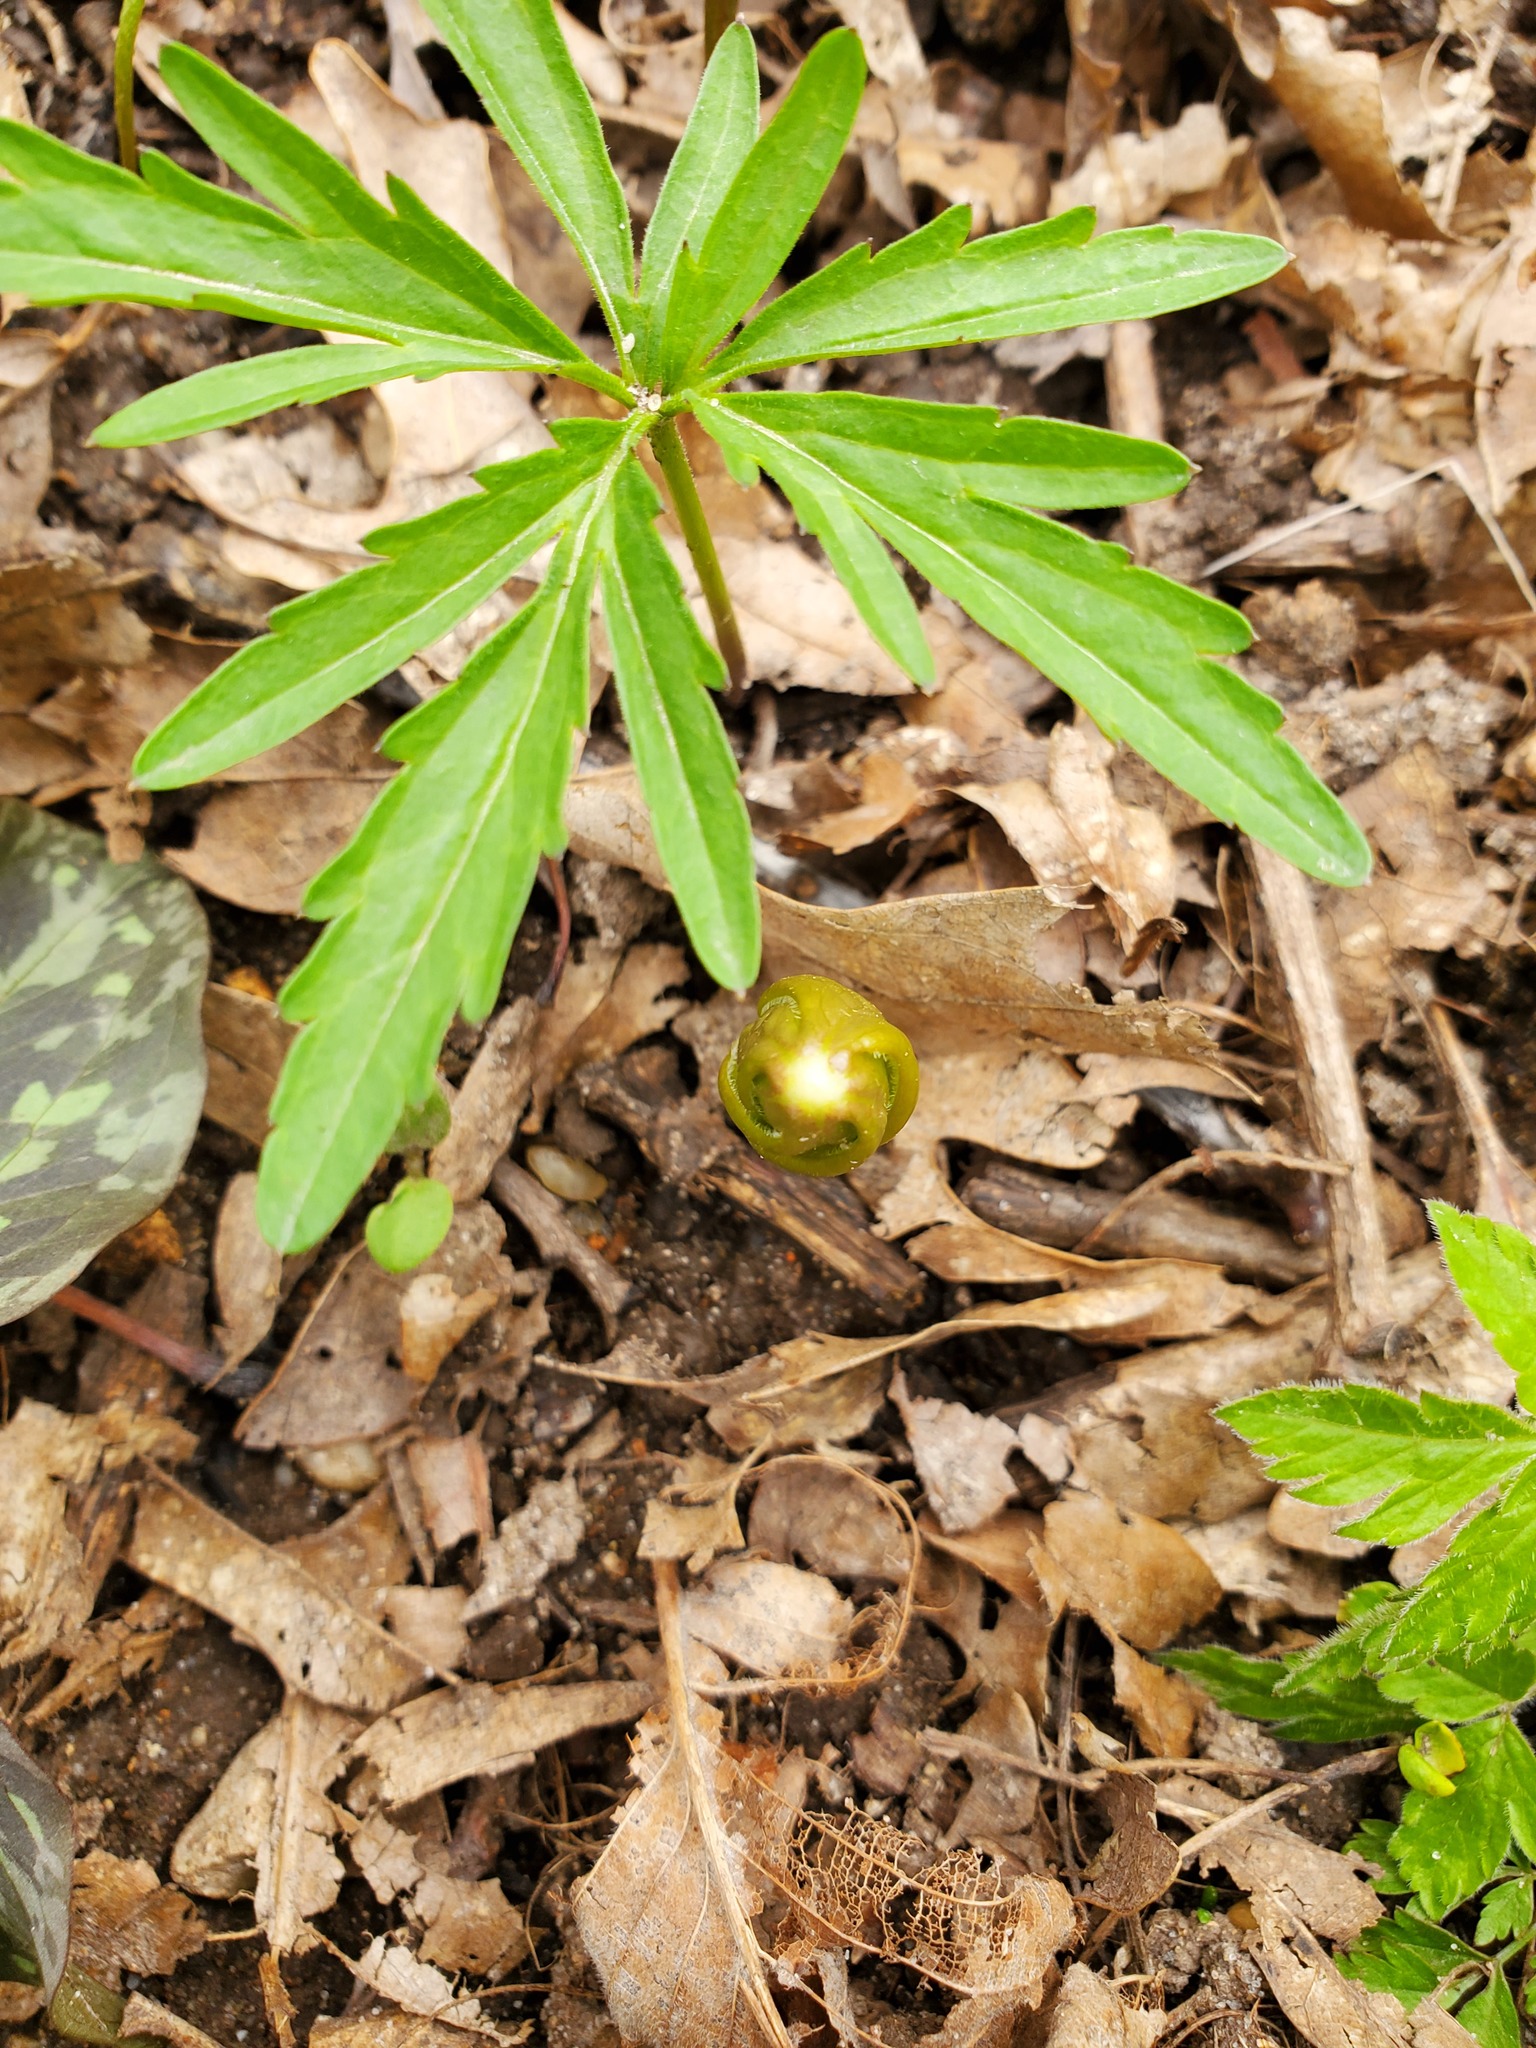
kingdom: Plantae
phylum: Tracheophyta
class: Magnoliopsida
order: Ranunculales
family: Berberidaceae
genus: Podophyllum
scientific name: Podophyllum peltatum
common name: Wild mandrake
